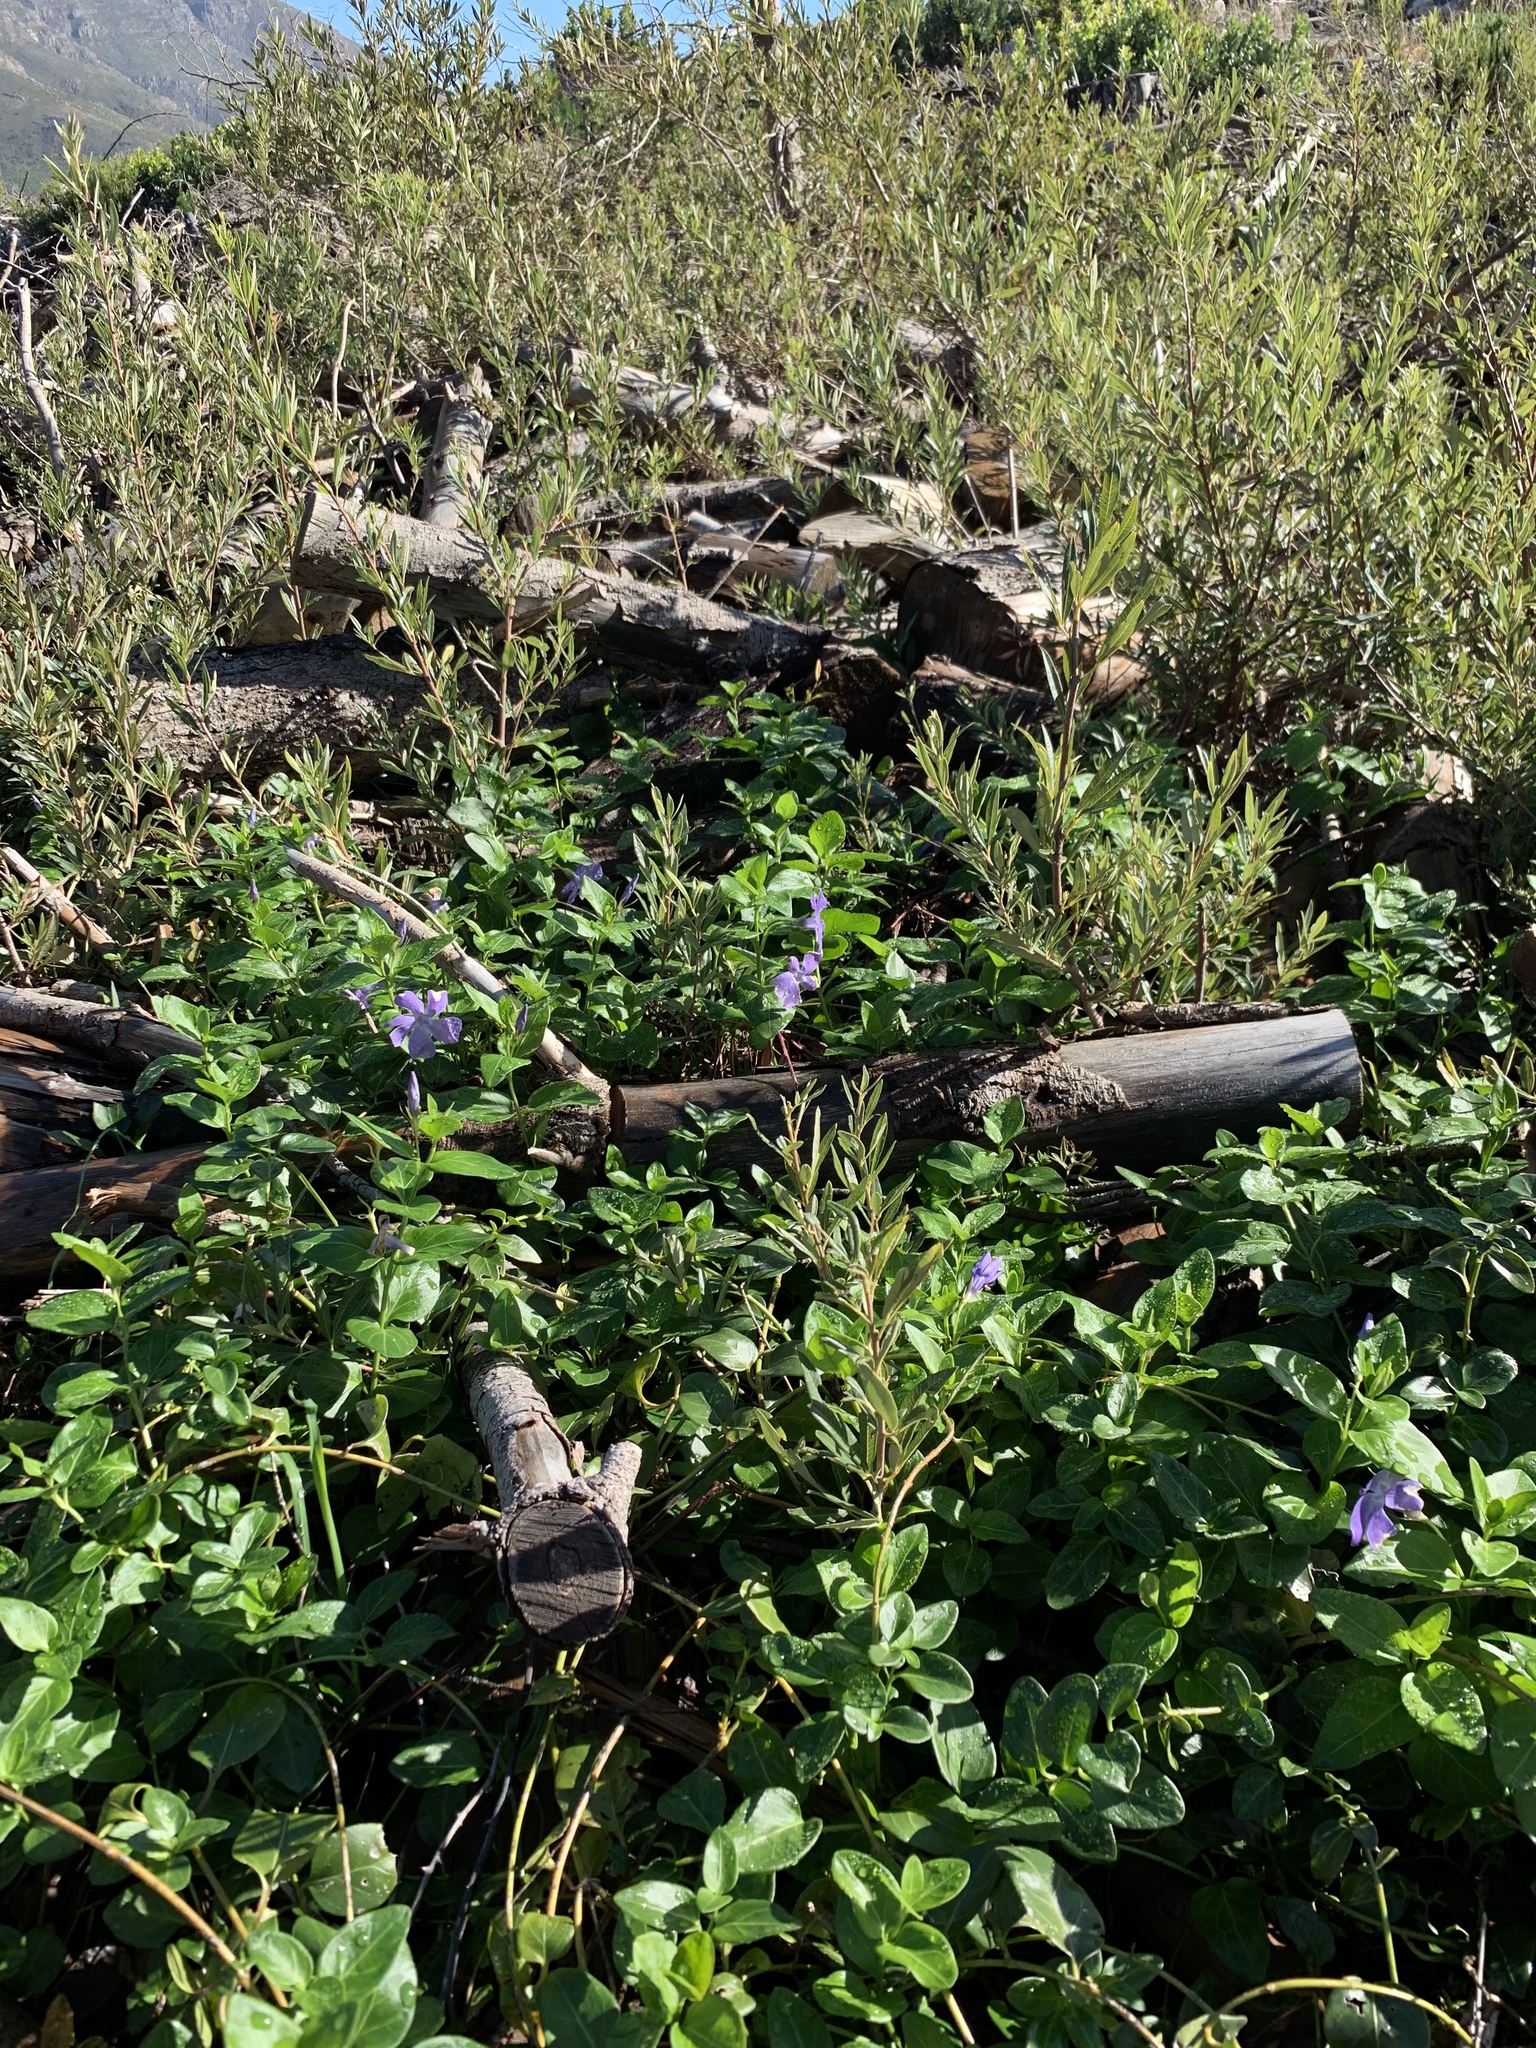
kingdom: Plantae
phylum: Tracheophyta
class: Magnoliopsida
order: Gentianales
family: Apocynaceae
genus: Vinca
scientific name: Vinca major
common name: Greater periwinkle
